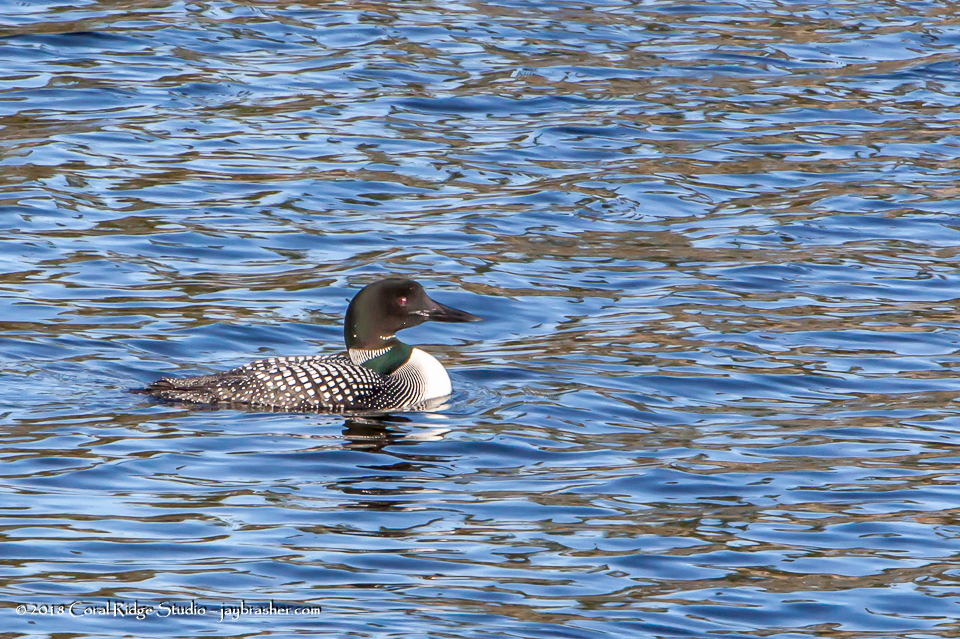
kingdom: Animalia
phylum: Chordata
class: Aves
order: Gaviiformes
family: Gaviidae
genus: Gavia
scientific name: Gavia immer
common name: Common loon
